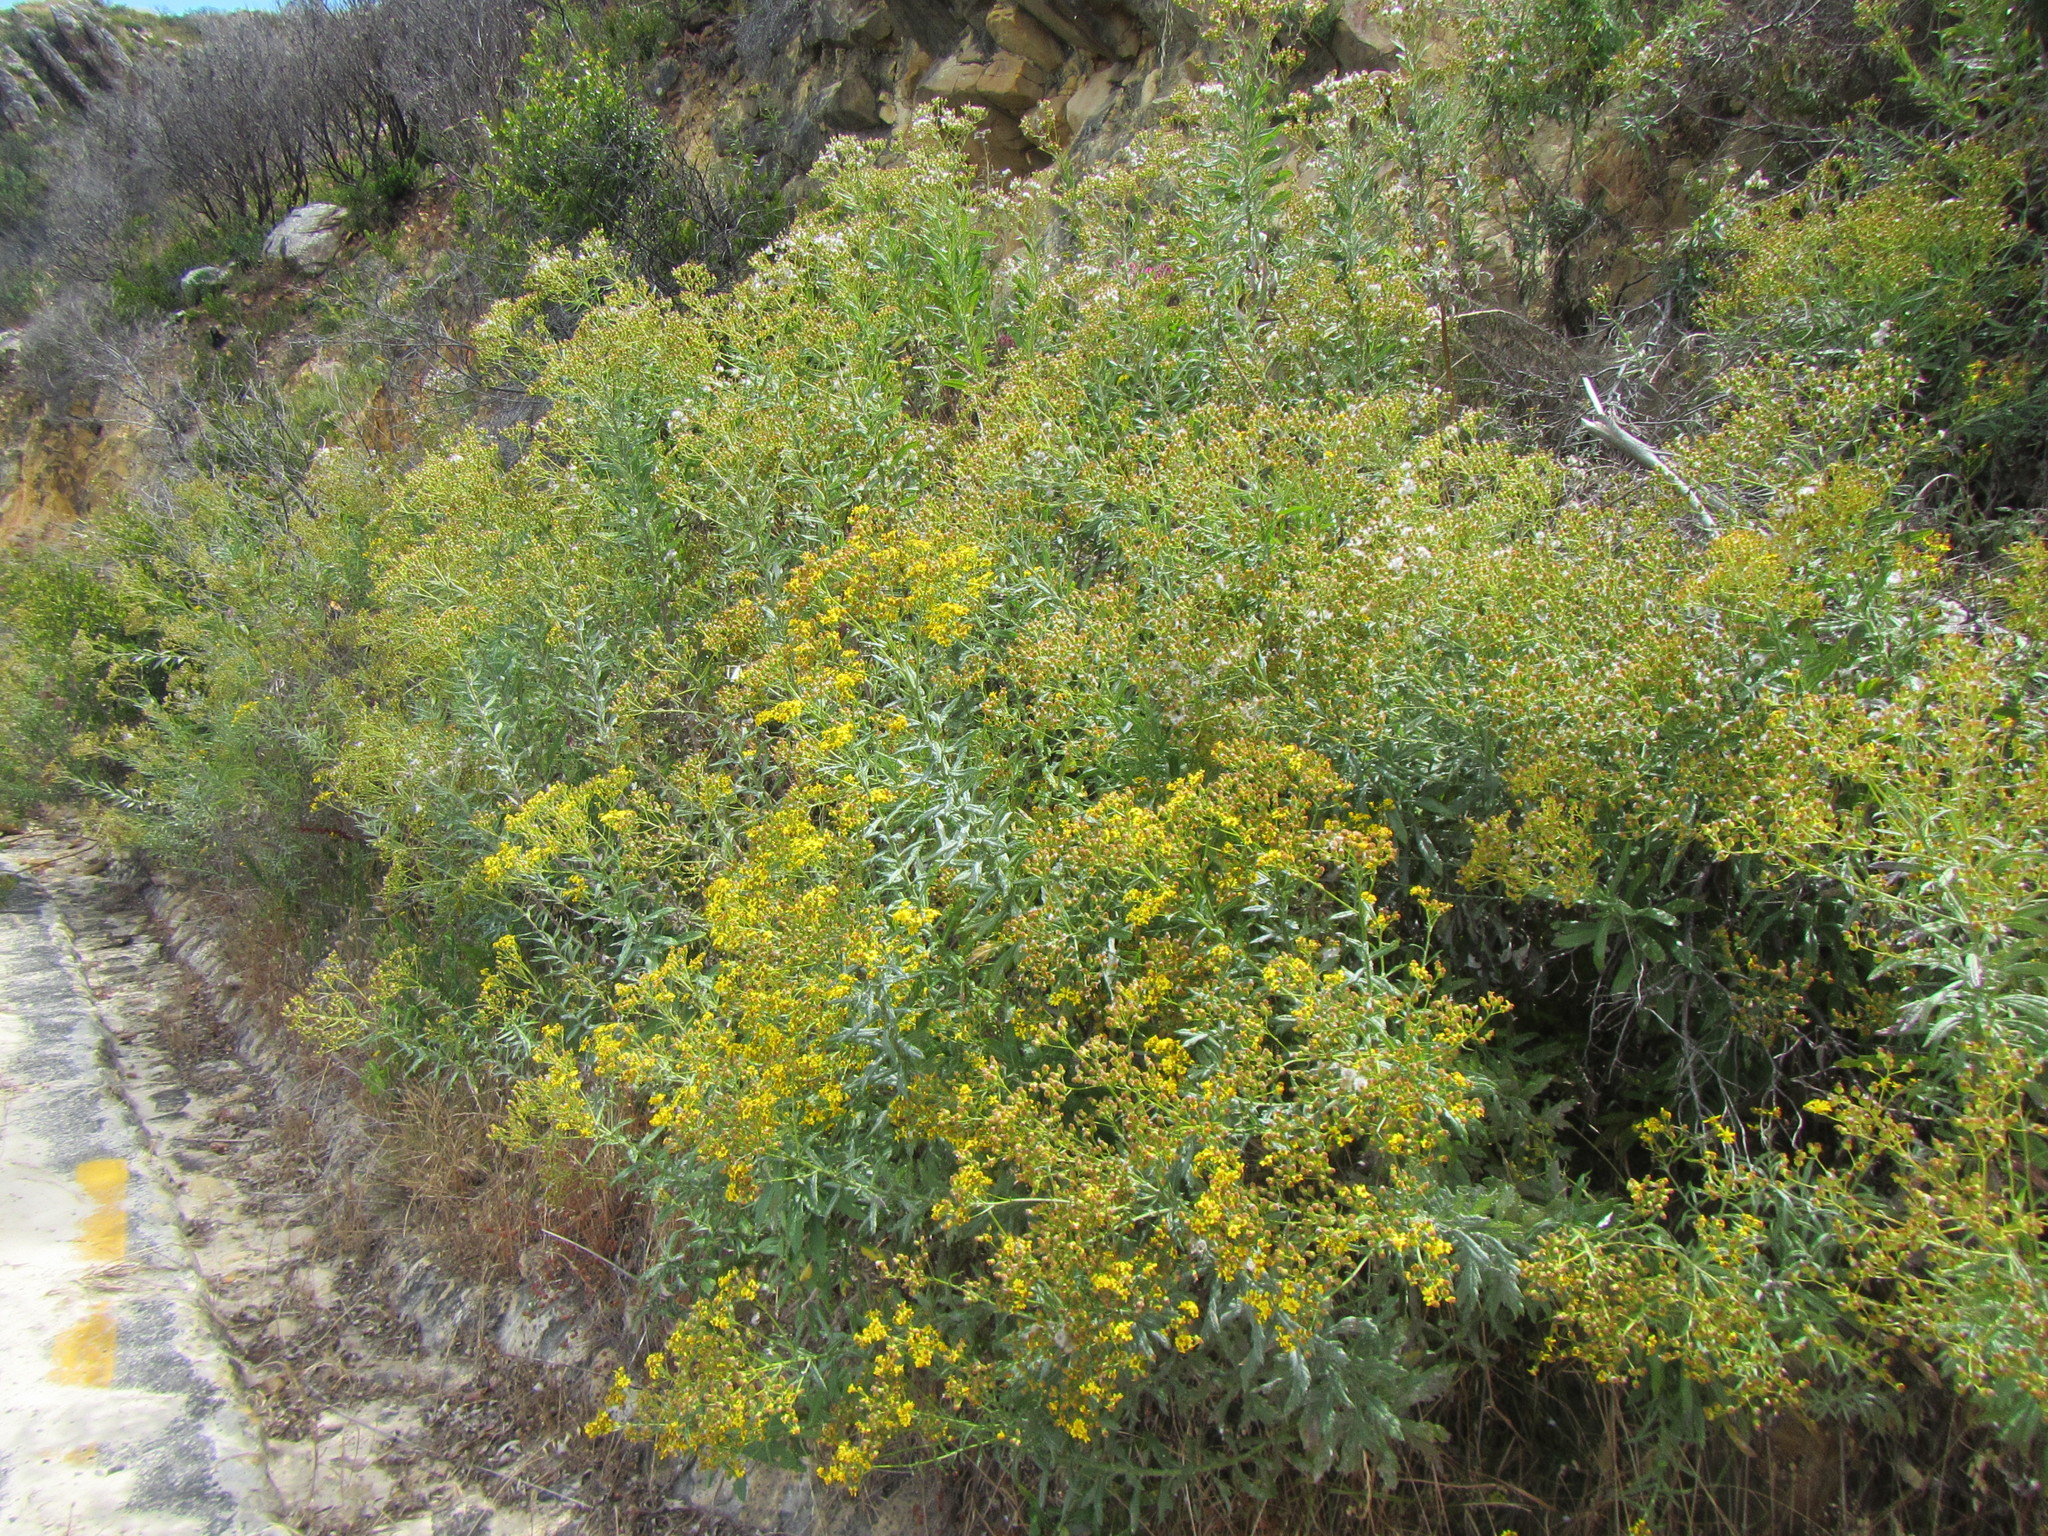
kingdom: Plantae
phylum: Tracheophyta
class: Magnoliopsida
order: Asterales
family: Asteraceae
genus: Senecio
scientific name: Senecio pterophorus
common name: Shoddy ragwort
